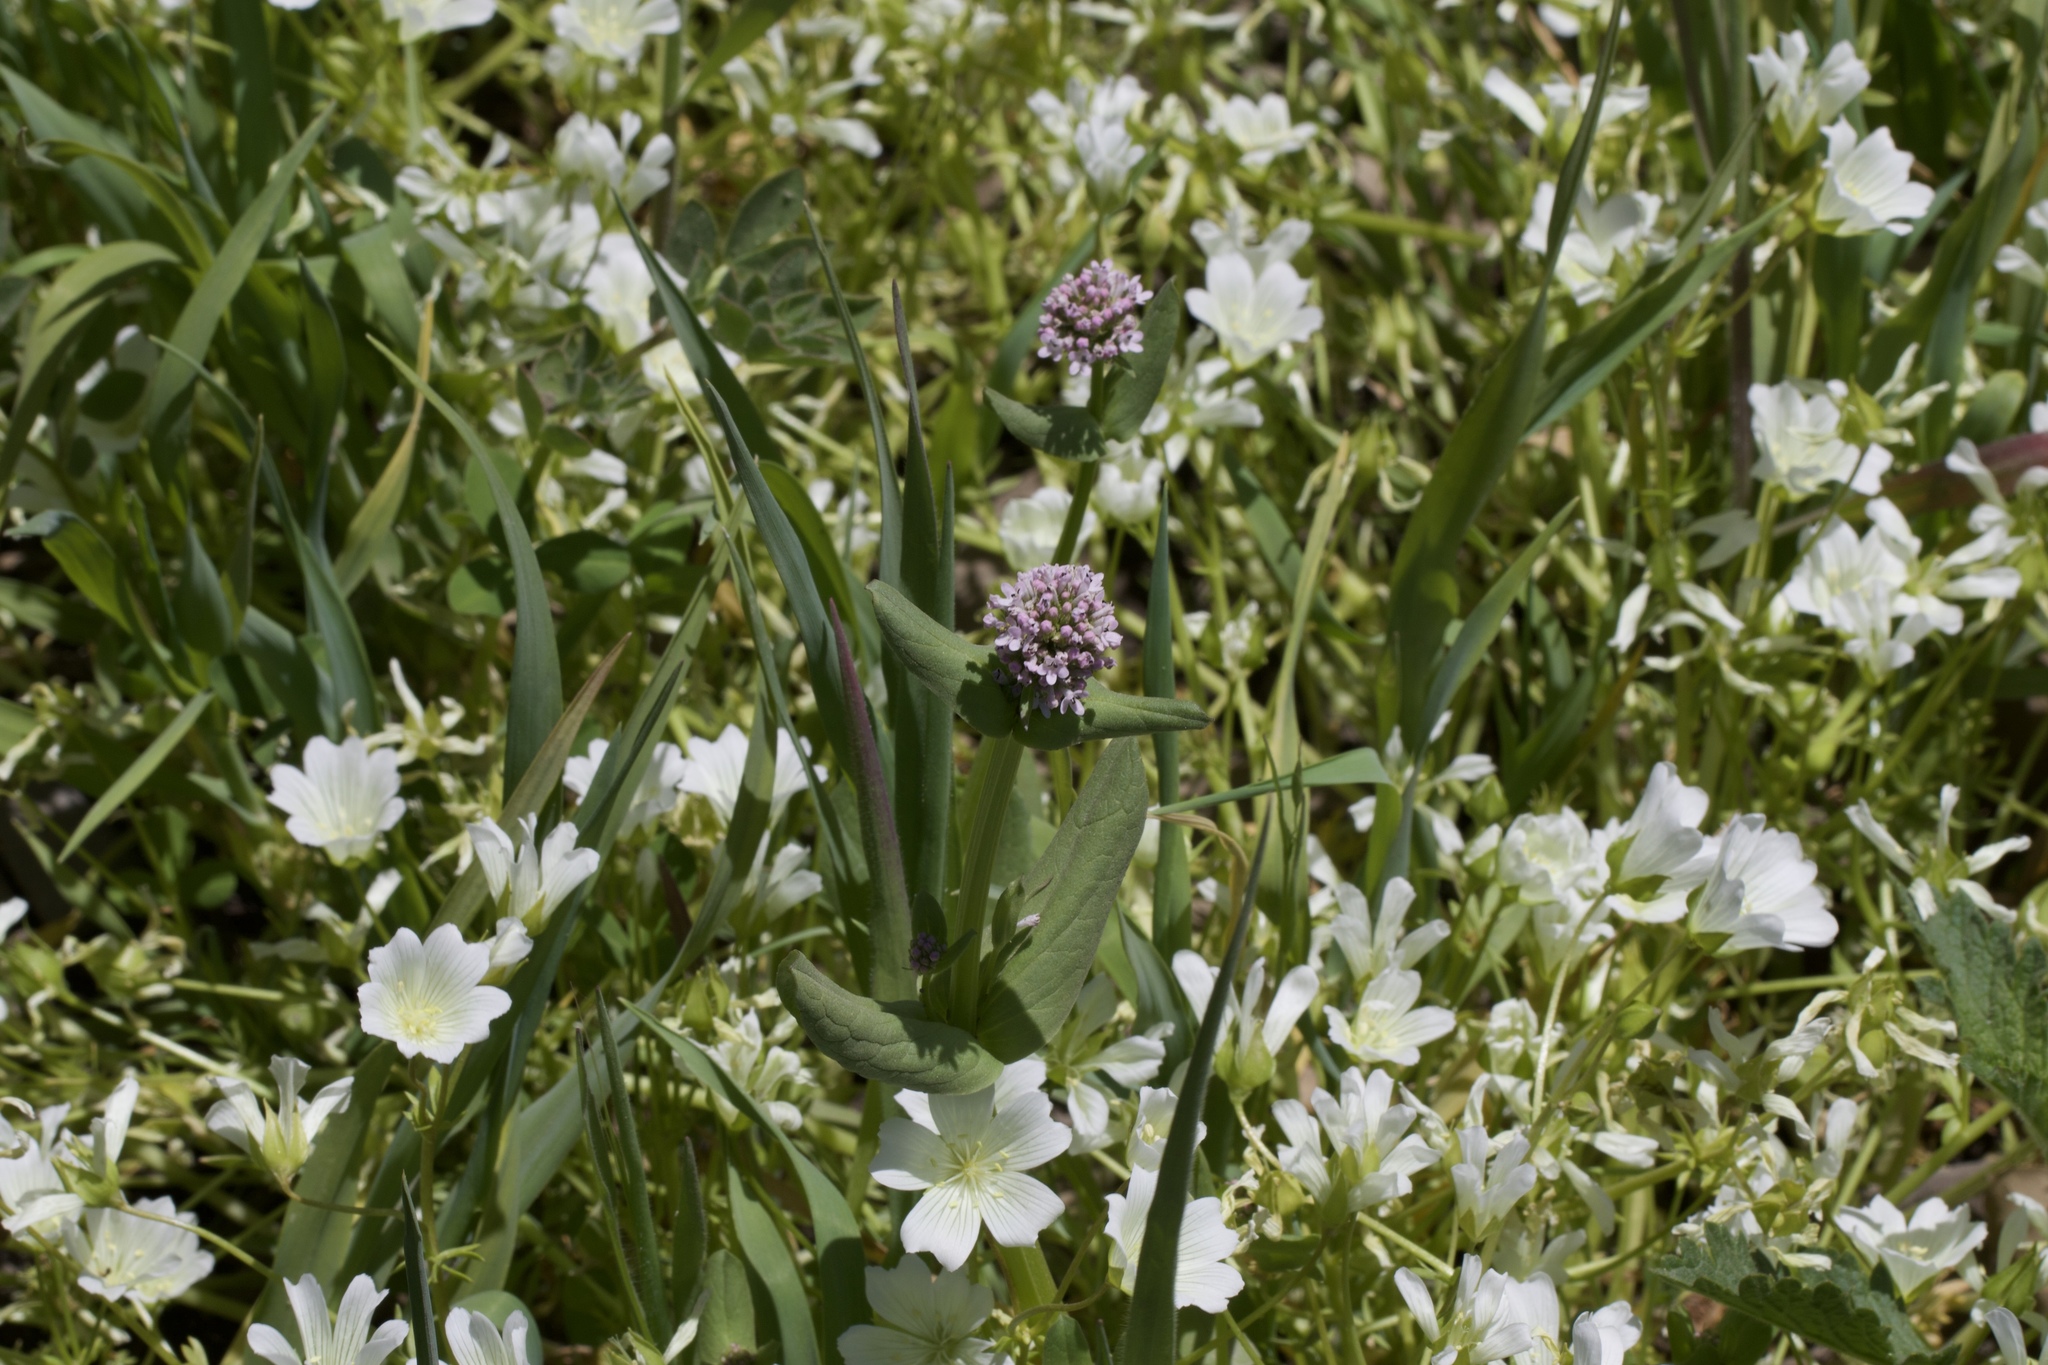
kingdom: Plantae
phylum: Tracheophyta
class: Magnoliopsida
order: Dipsacales
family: Caprifoliaceae
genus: Plectritis
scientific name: Plectritis brachystemon
